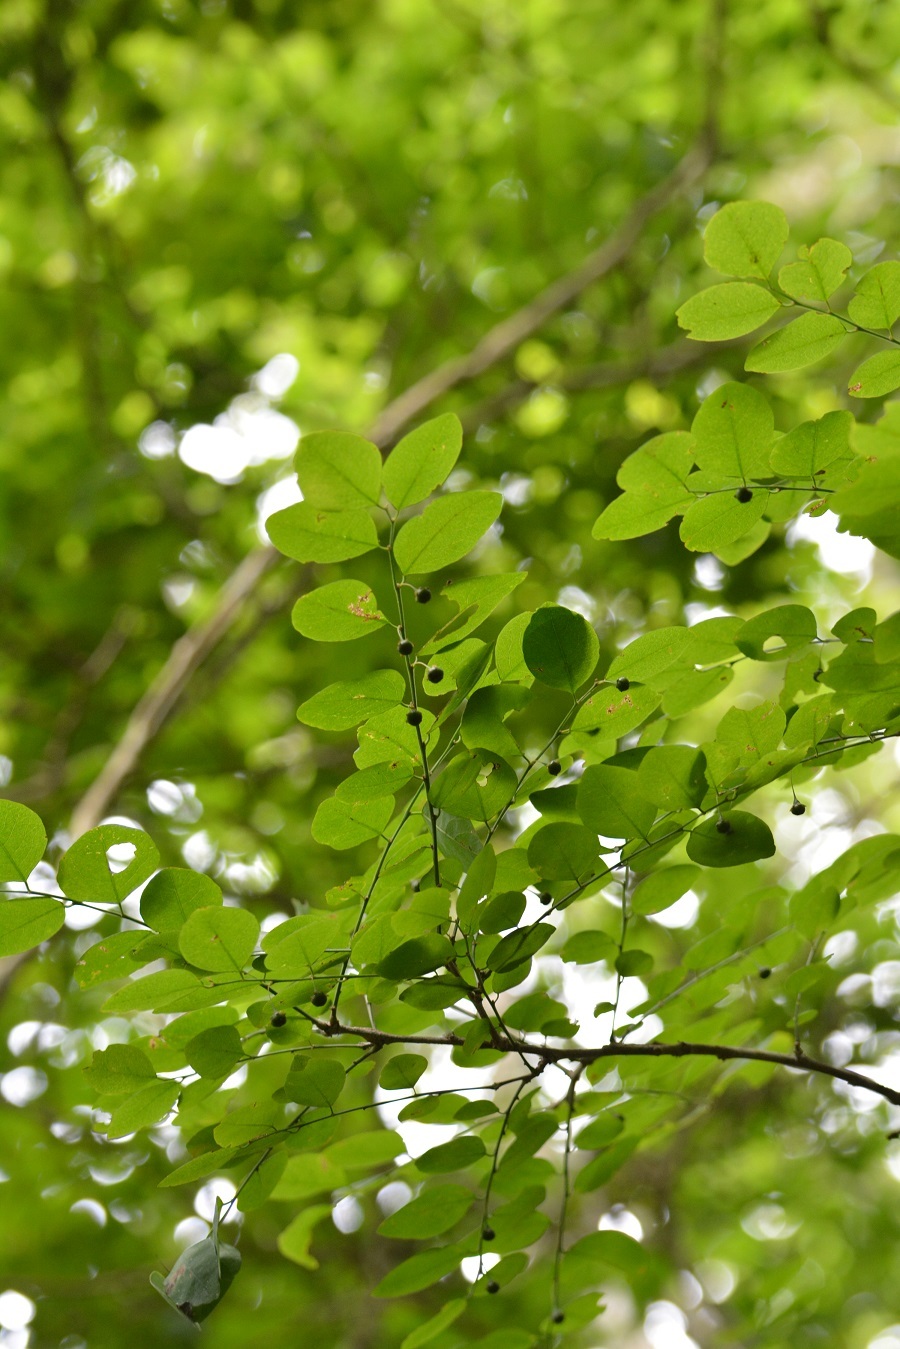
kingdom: Plantae
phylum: Tracheophyta
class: Magnoliopsida
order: Malpighiales
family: Phyllanthaceae
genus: Phyllanthus
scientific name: Phyllanthus mocinoanus
